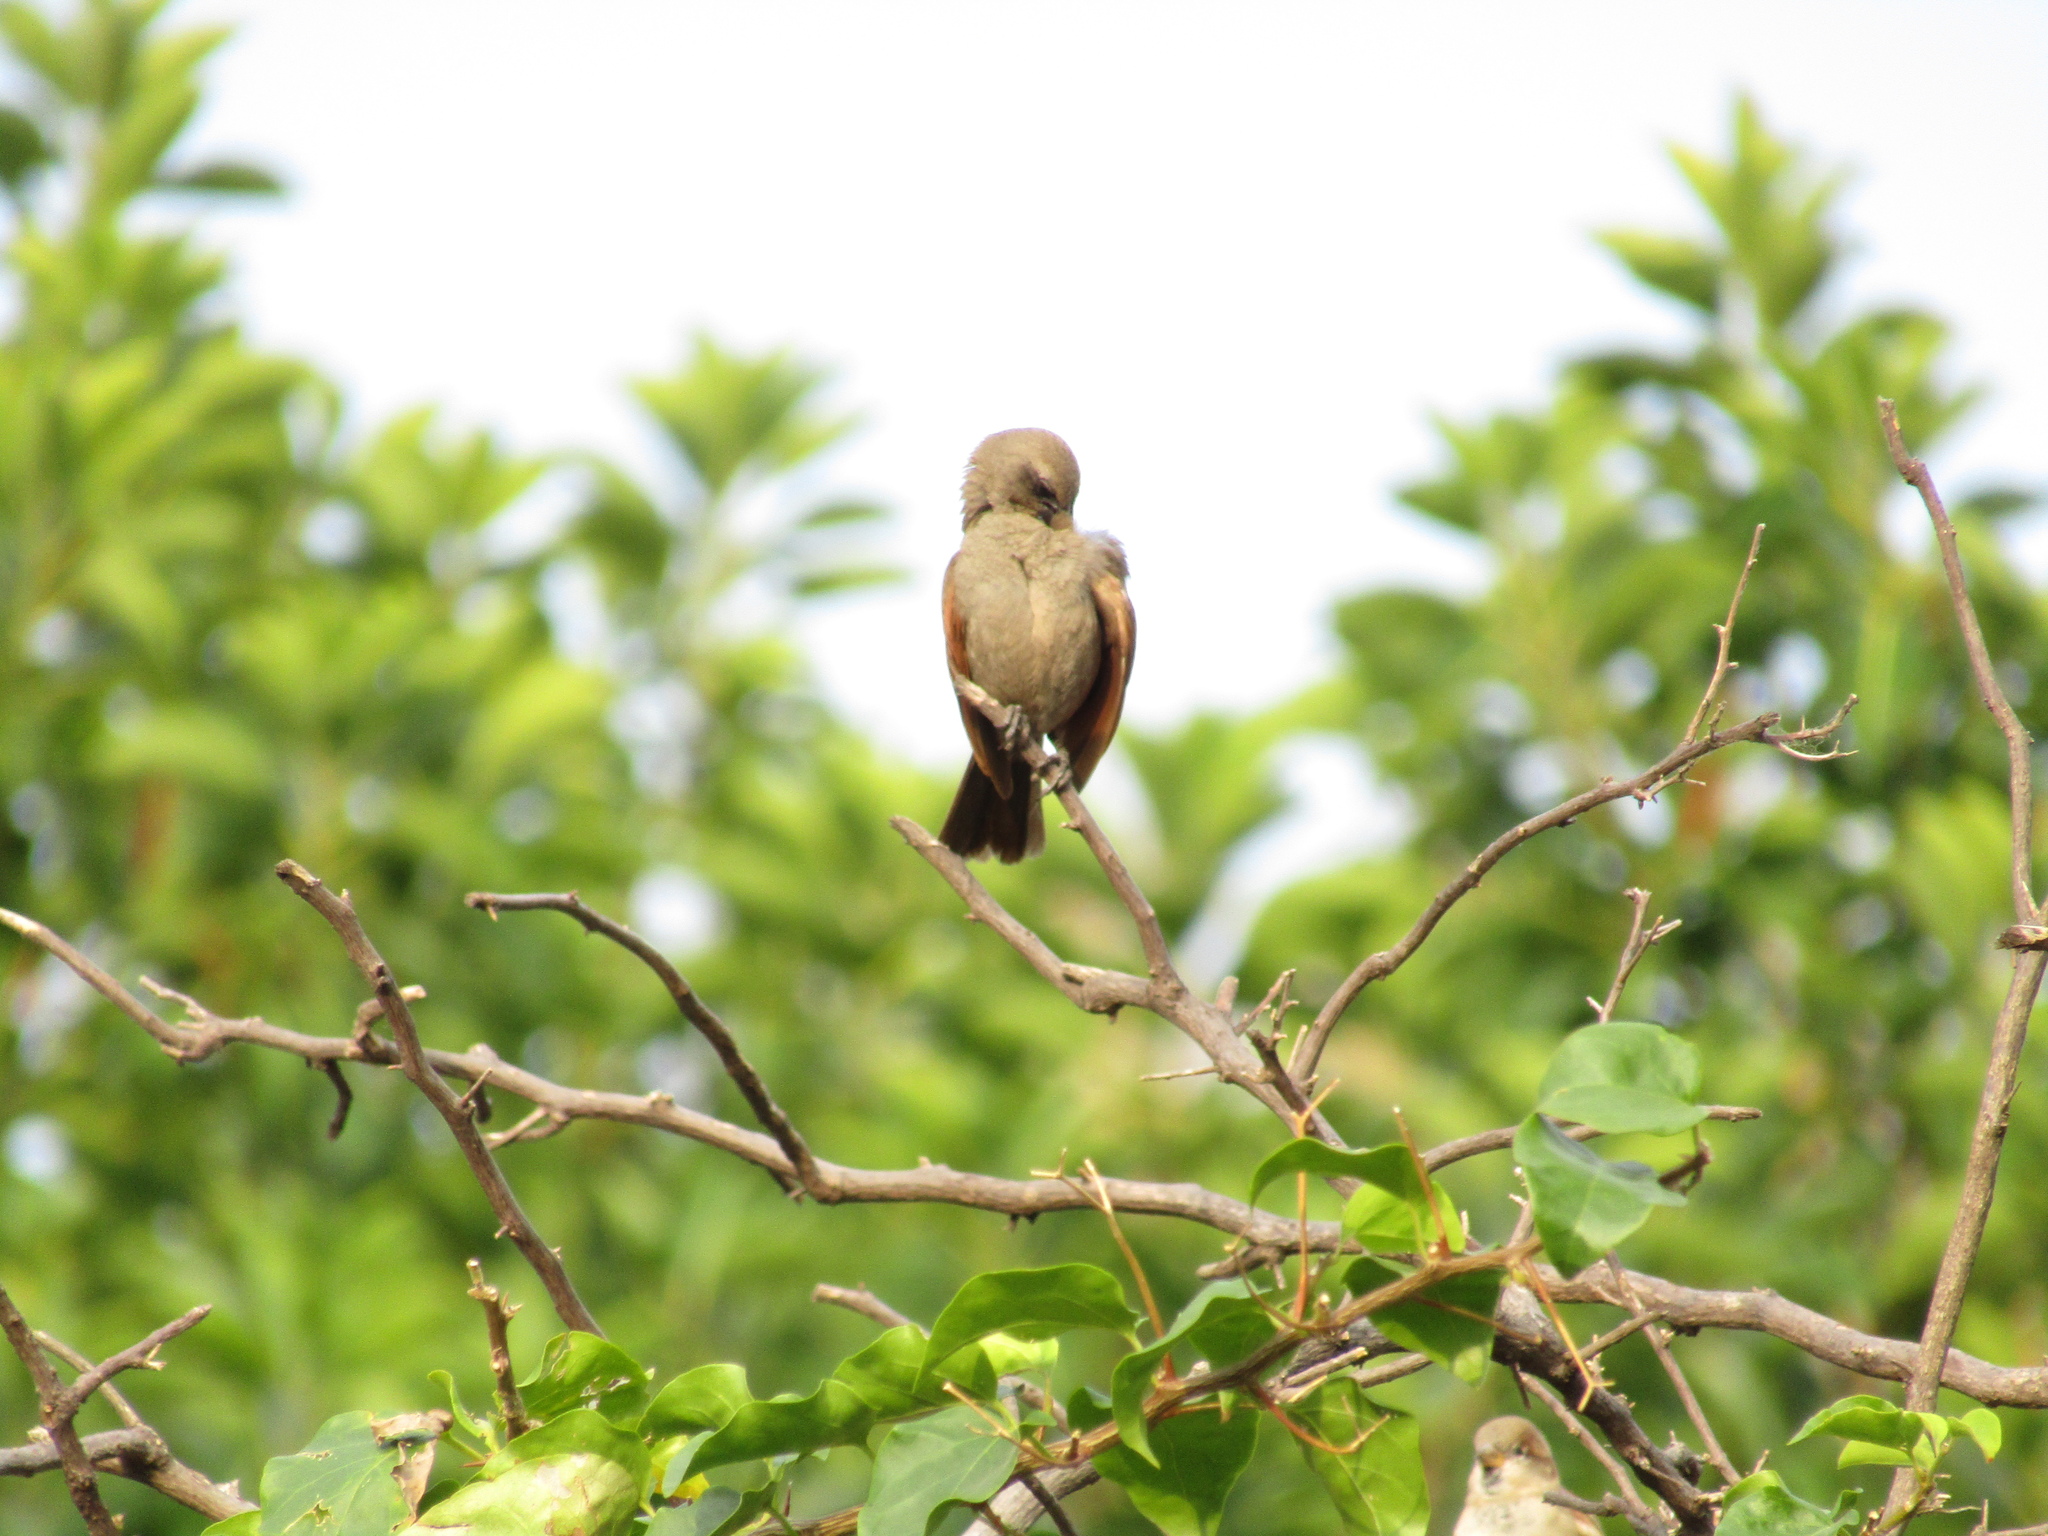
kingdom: Animalia
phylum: Chordata
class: Aves
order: Passeriformes
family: Icteridae
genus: Agelaioides
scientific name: Agelaioides badius
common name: Baywing
